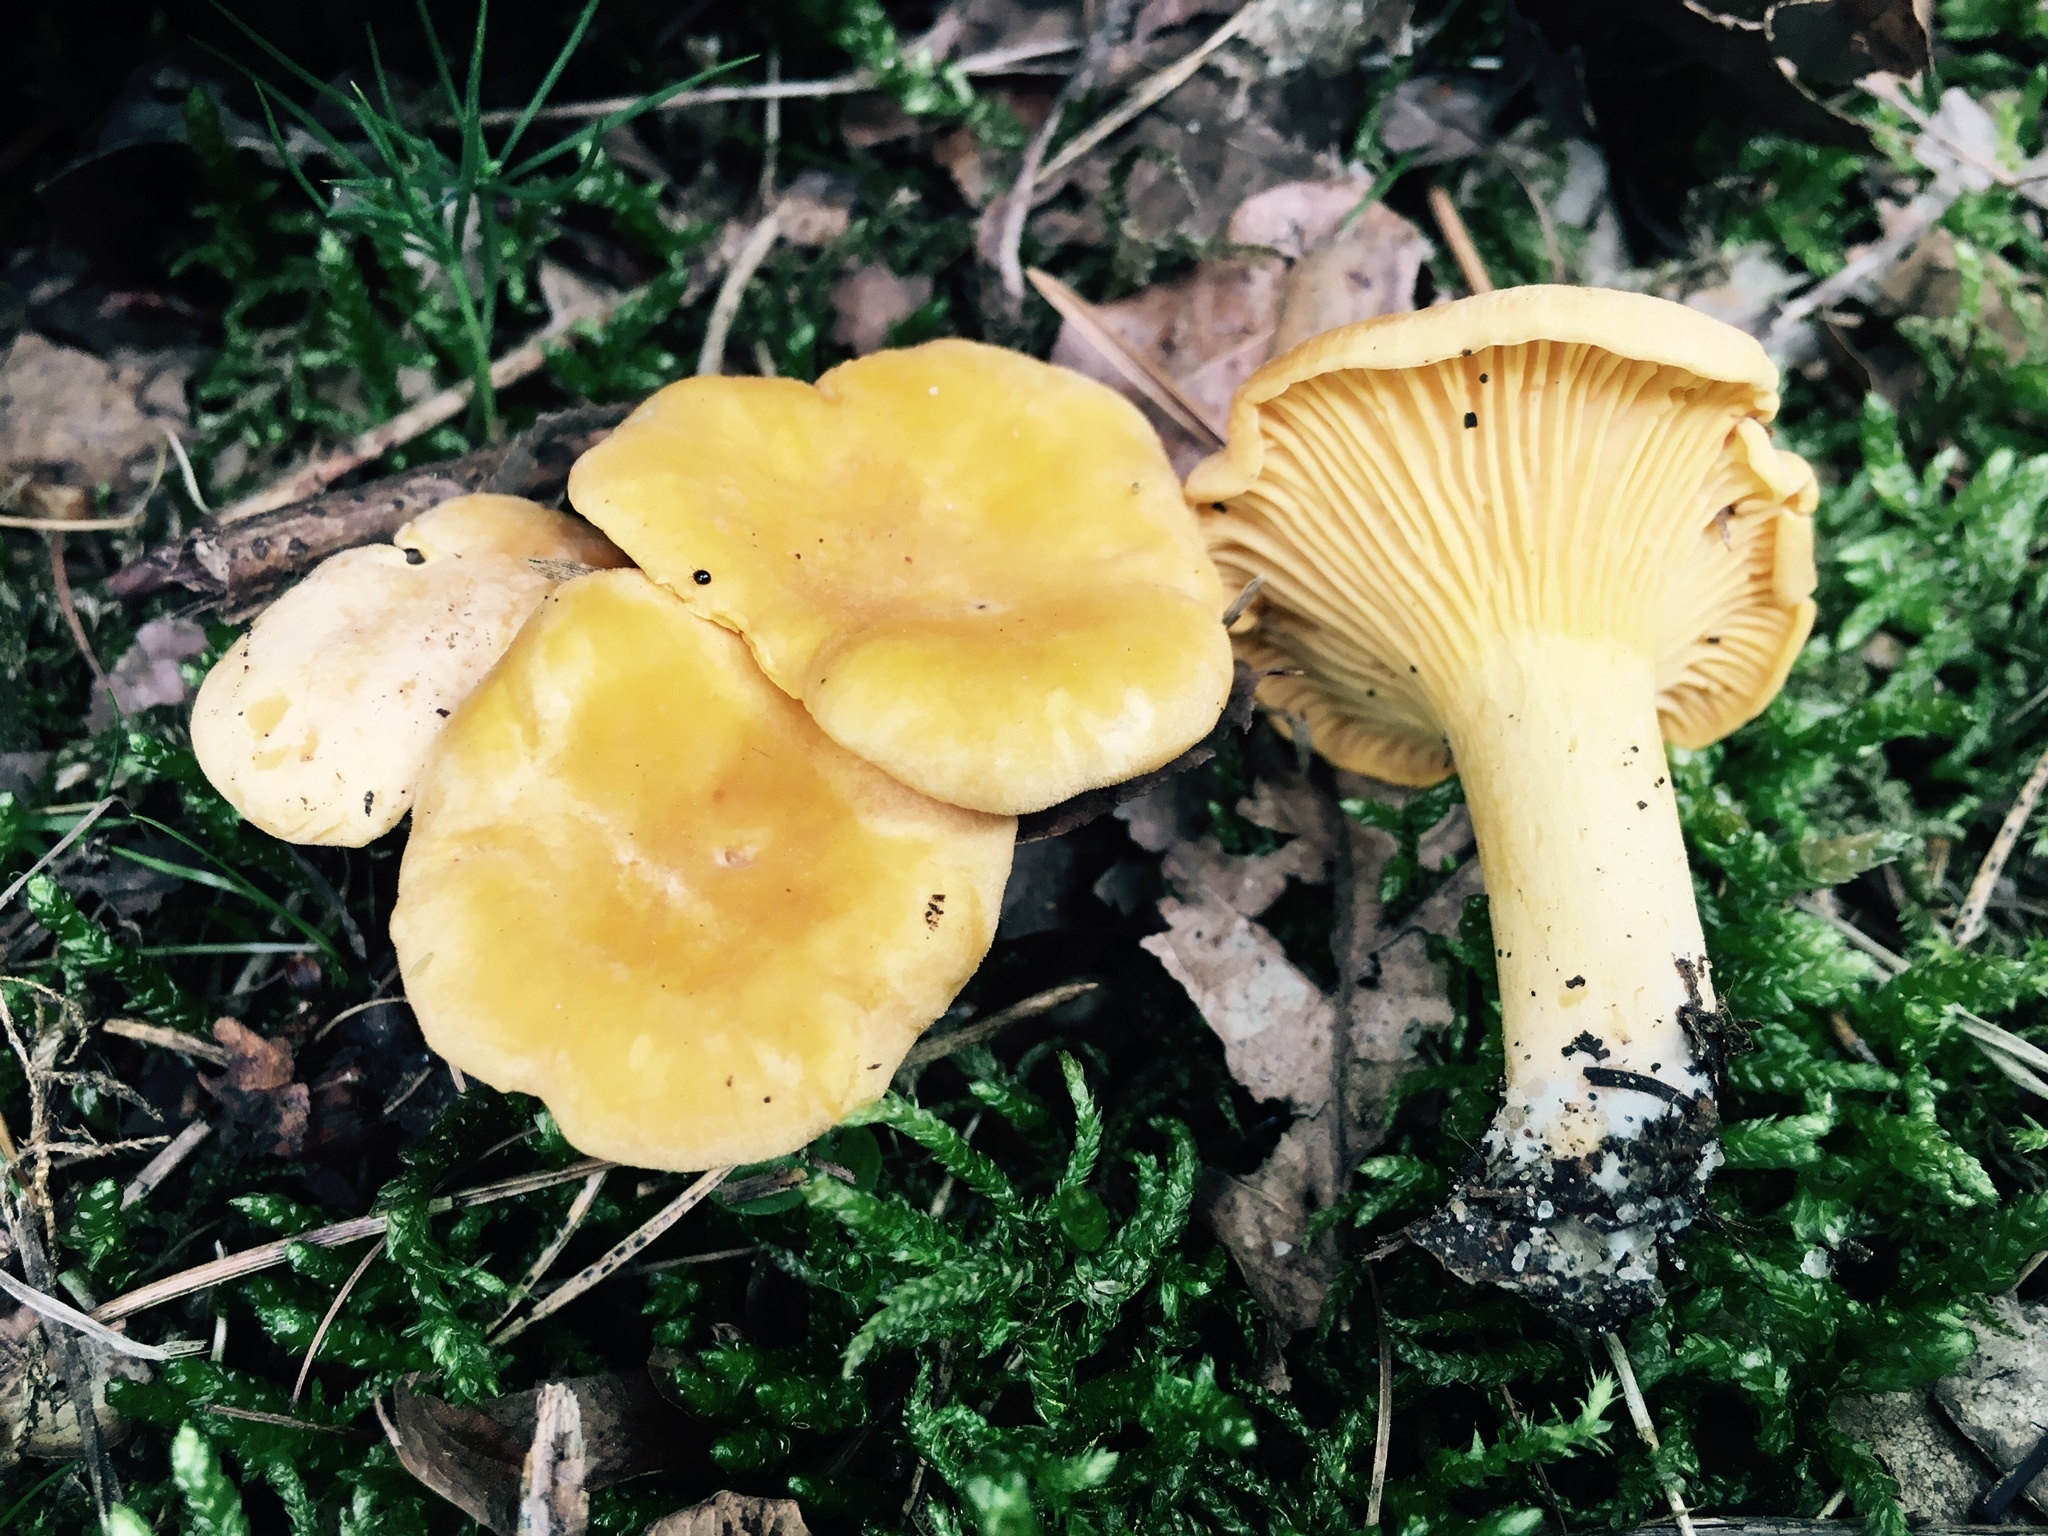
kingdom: Fungi
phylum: Basidiomycota
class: Agaricomycetes
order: Cantharellales
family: Hydnaceae
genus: Cantharellus
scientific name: Cantharellus cibarius
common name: Chanterelle
